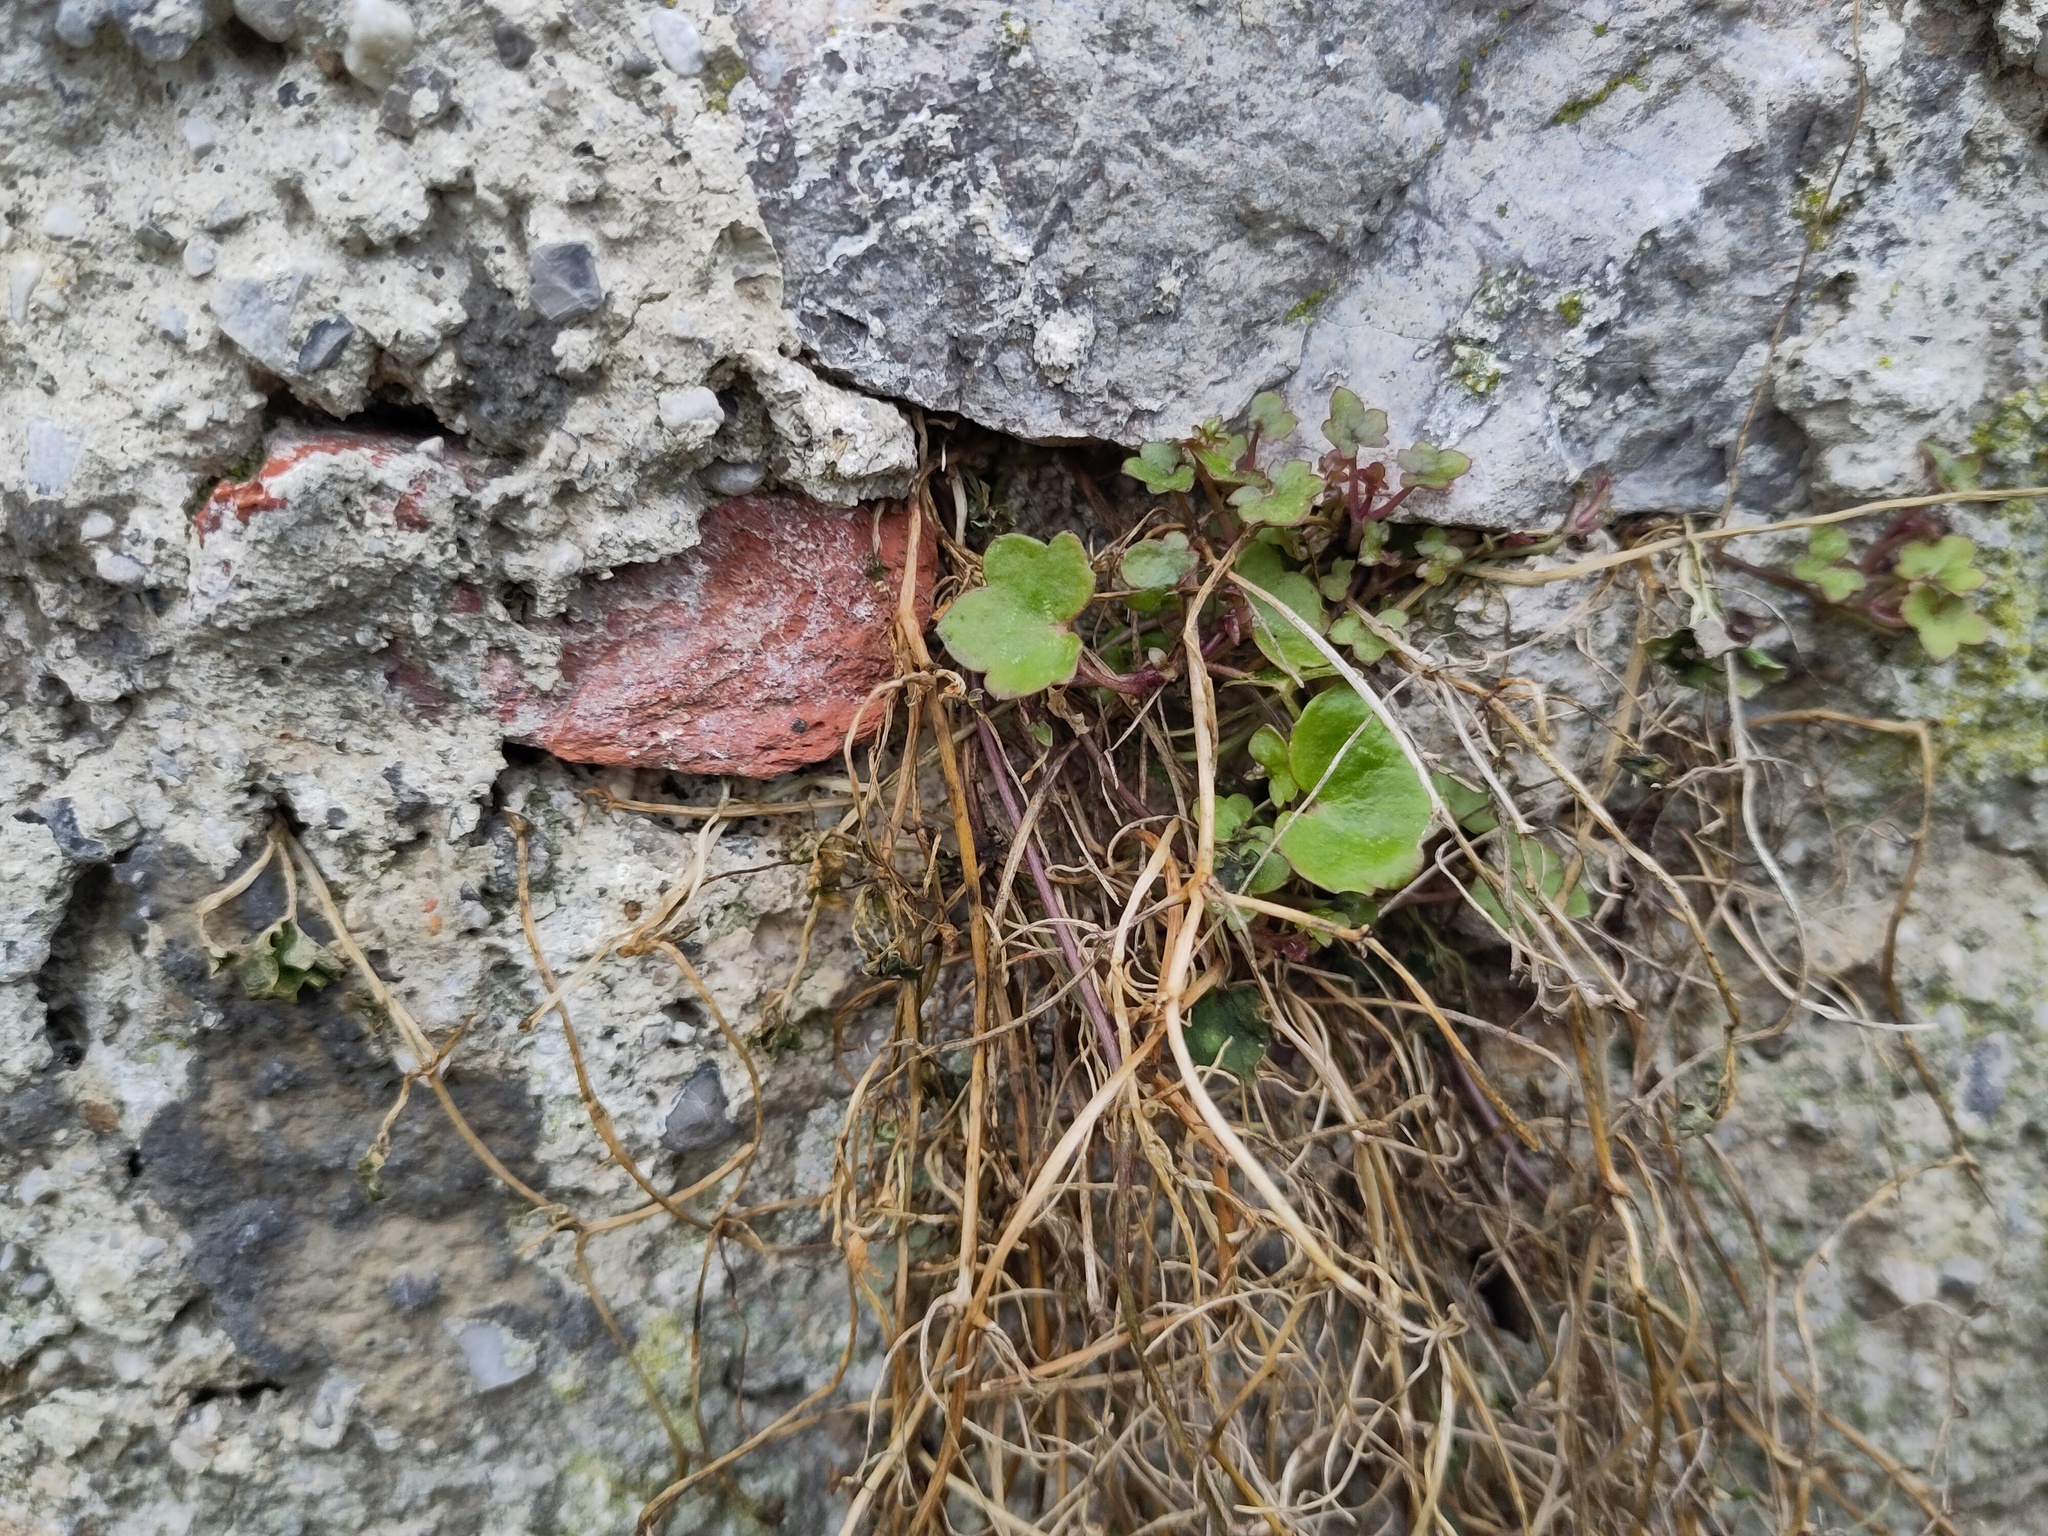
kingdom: Plantae
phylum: Tracheophyta
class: Magnoliopsida
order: Lamiales
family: Plantaginaceae
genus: Cymbalaria
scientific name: Cymbalaria muralis
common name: Ivy-leaved toadflax
